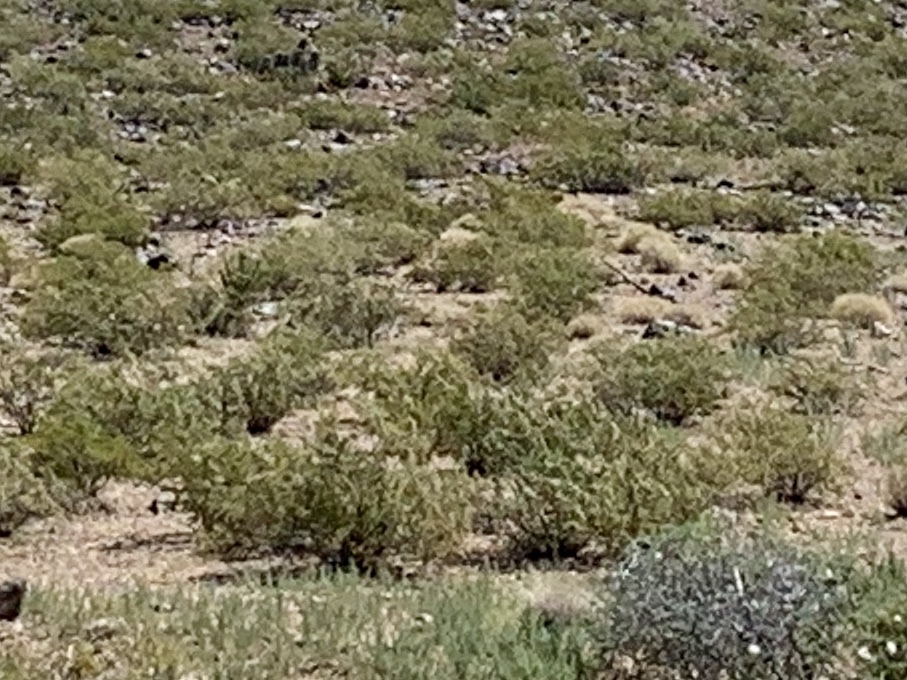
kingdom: Plantae
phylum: Tracheophyta
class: Magnoliopsida
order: Zygophyllales
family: Zygophyllaceae
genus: Larrea
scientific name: Larrea tridentata
